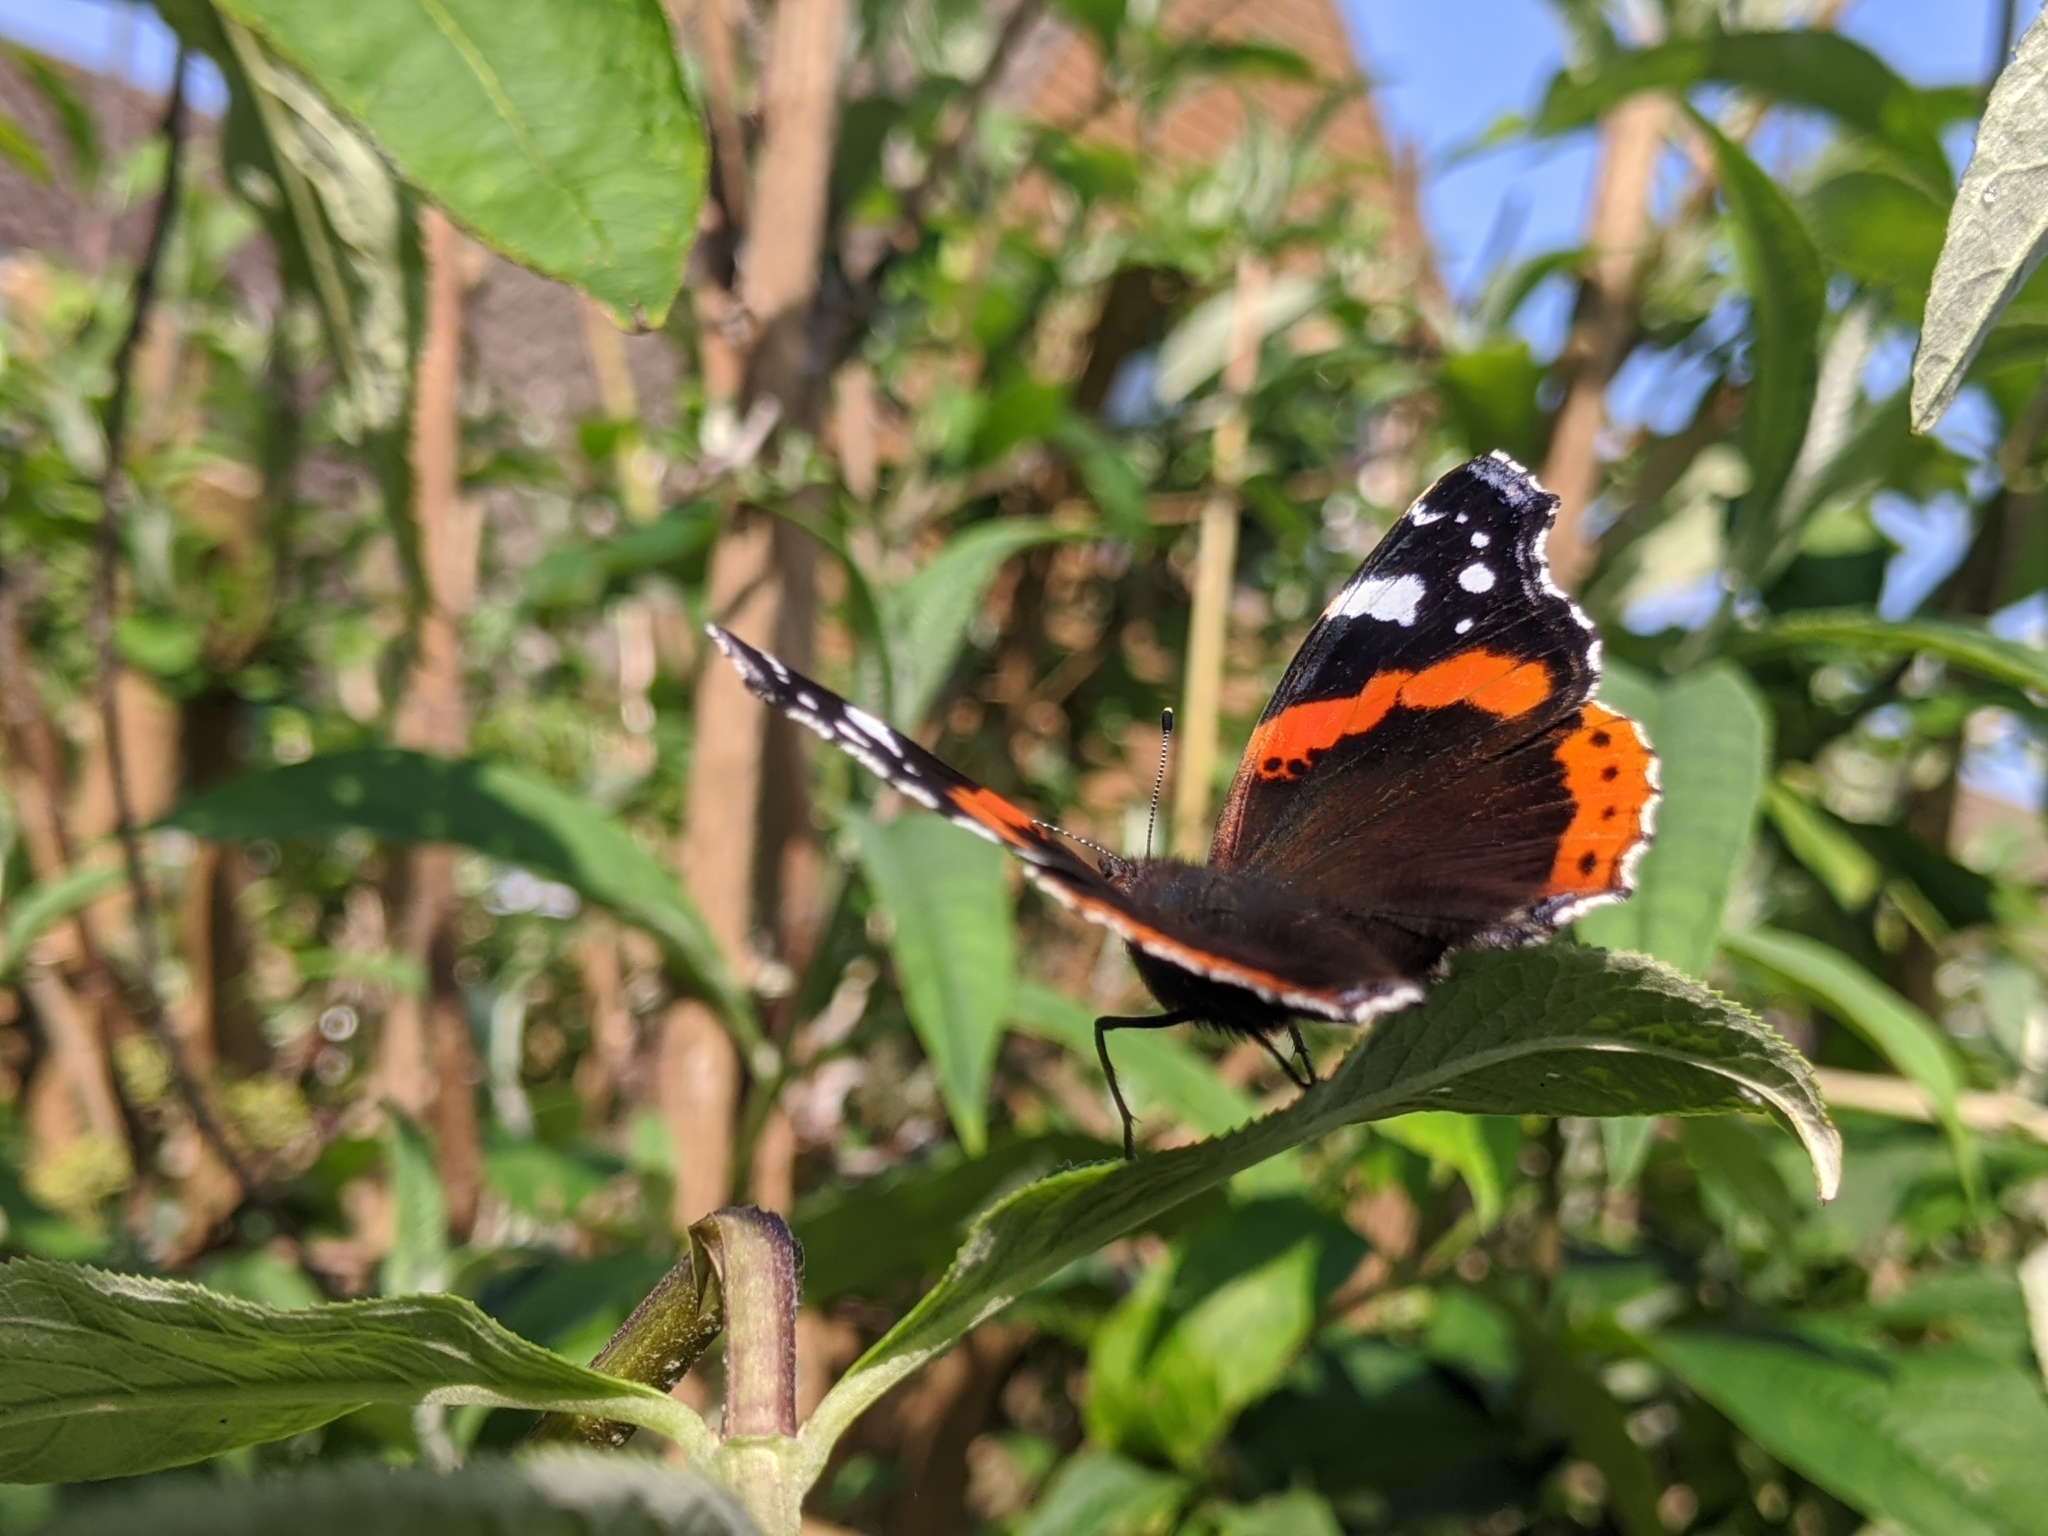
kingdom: Animalia
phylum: Arthropoda
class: Insecta
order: Lepidoptera
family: Nymphalidae
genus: Vanessa
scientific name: Vanessa atalanta
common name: Red admiral
